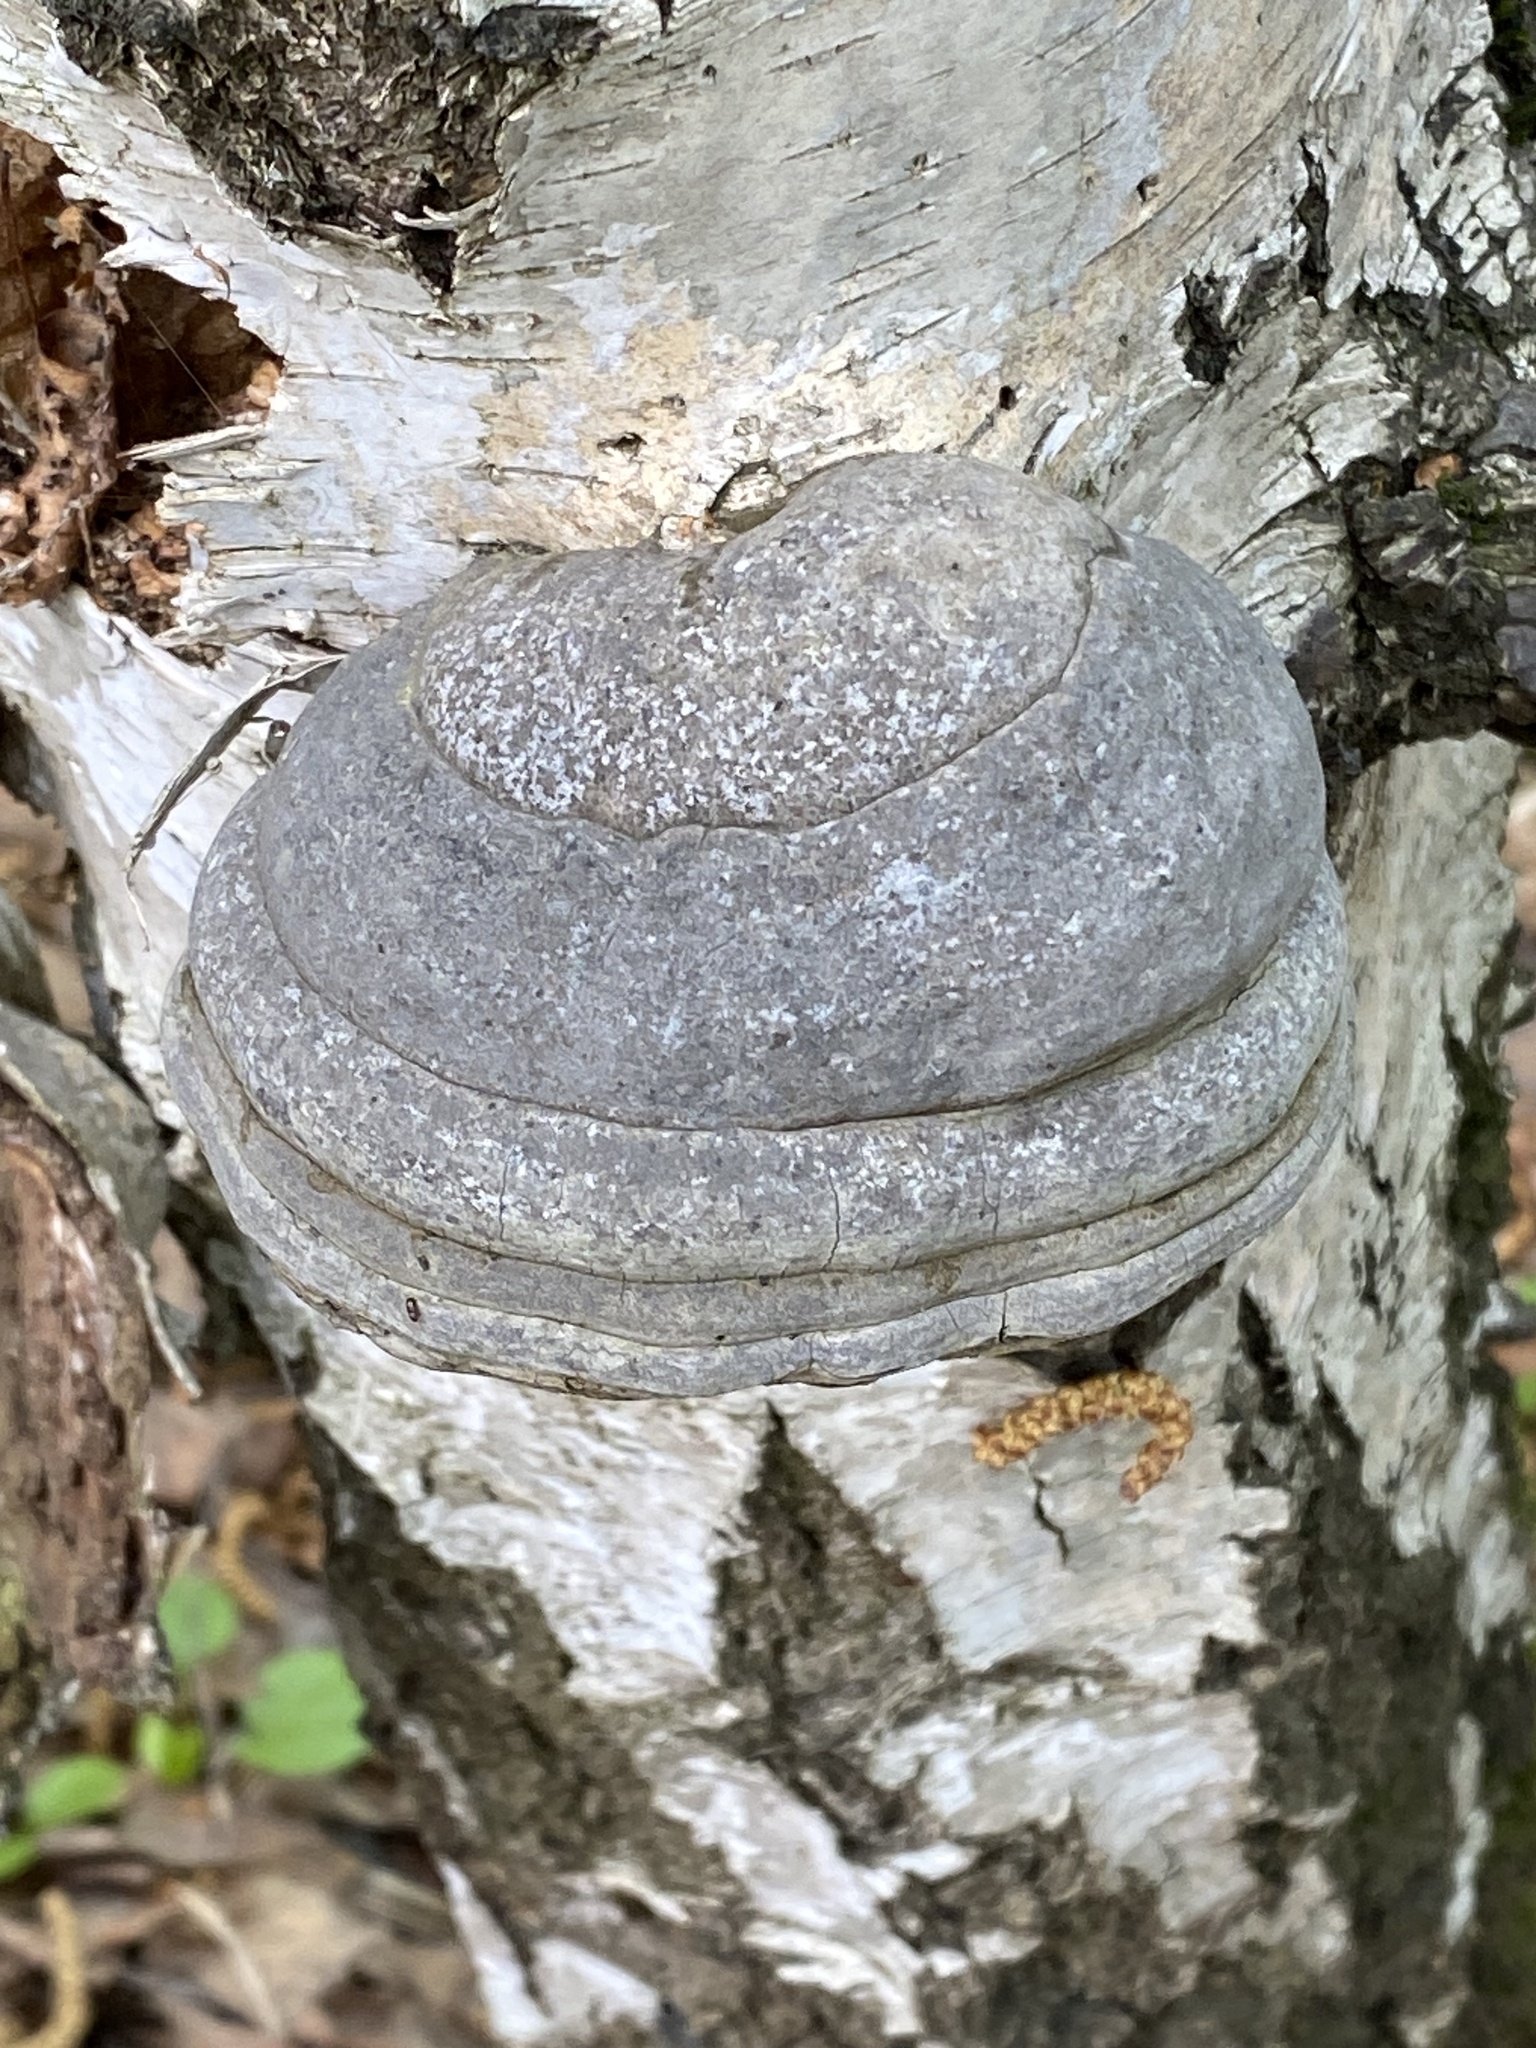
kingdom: Fungi
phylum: Basidiomycota
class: Agaricomycetes
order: Polyporales
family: Polyporaceae
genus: Fomes
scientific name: Fomes fomentarius
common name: Hoof fungus
